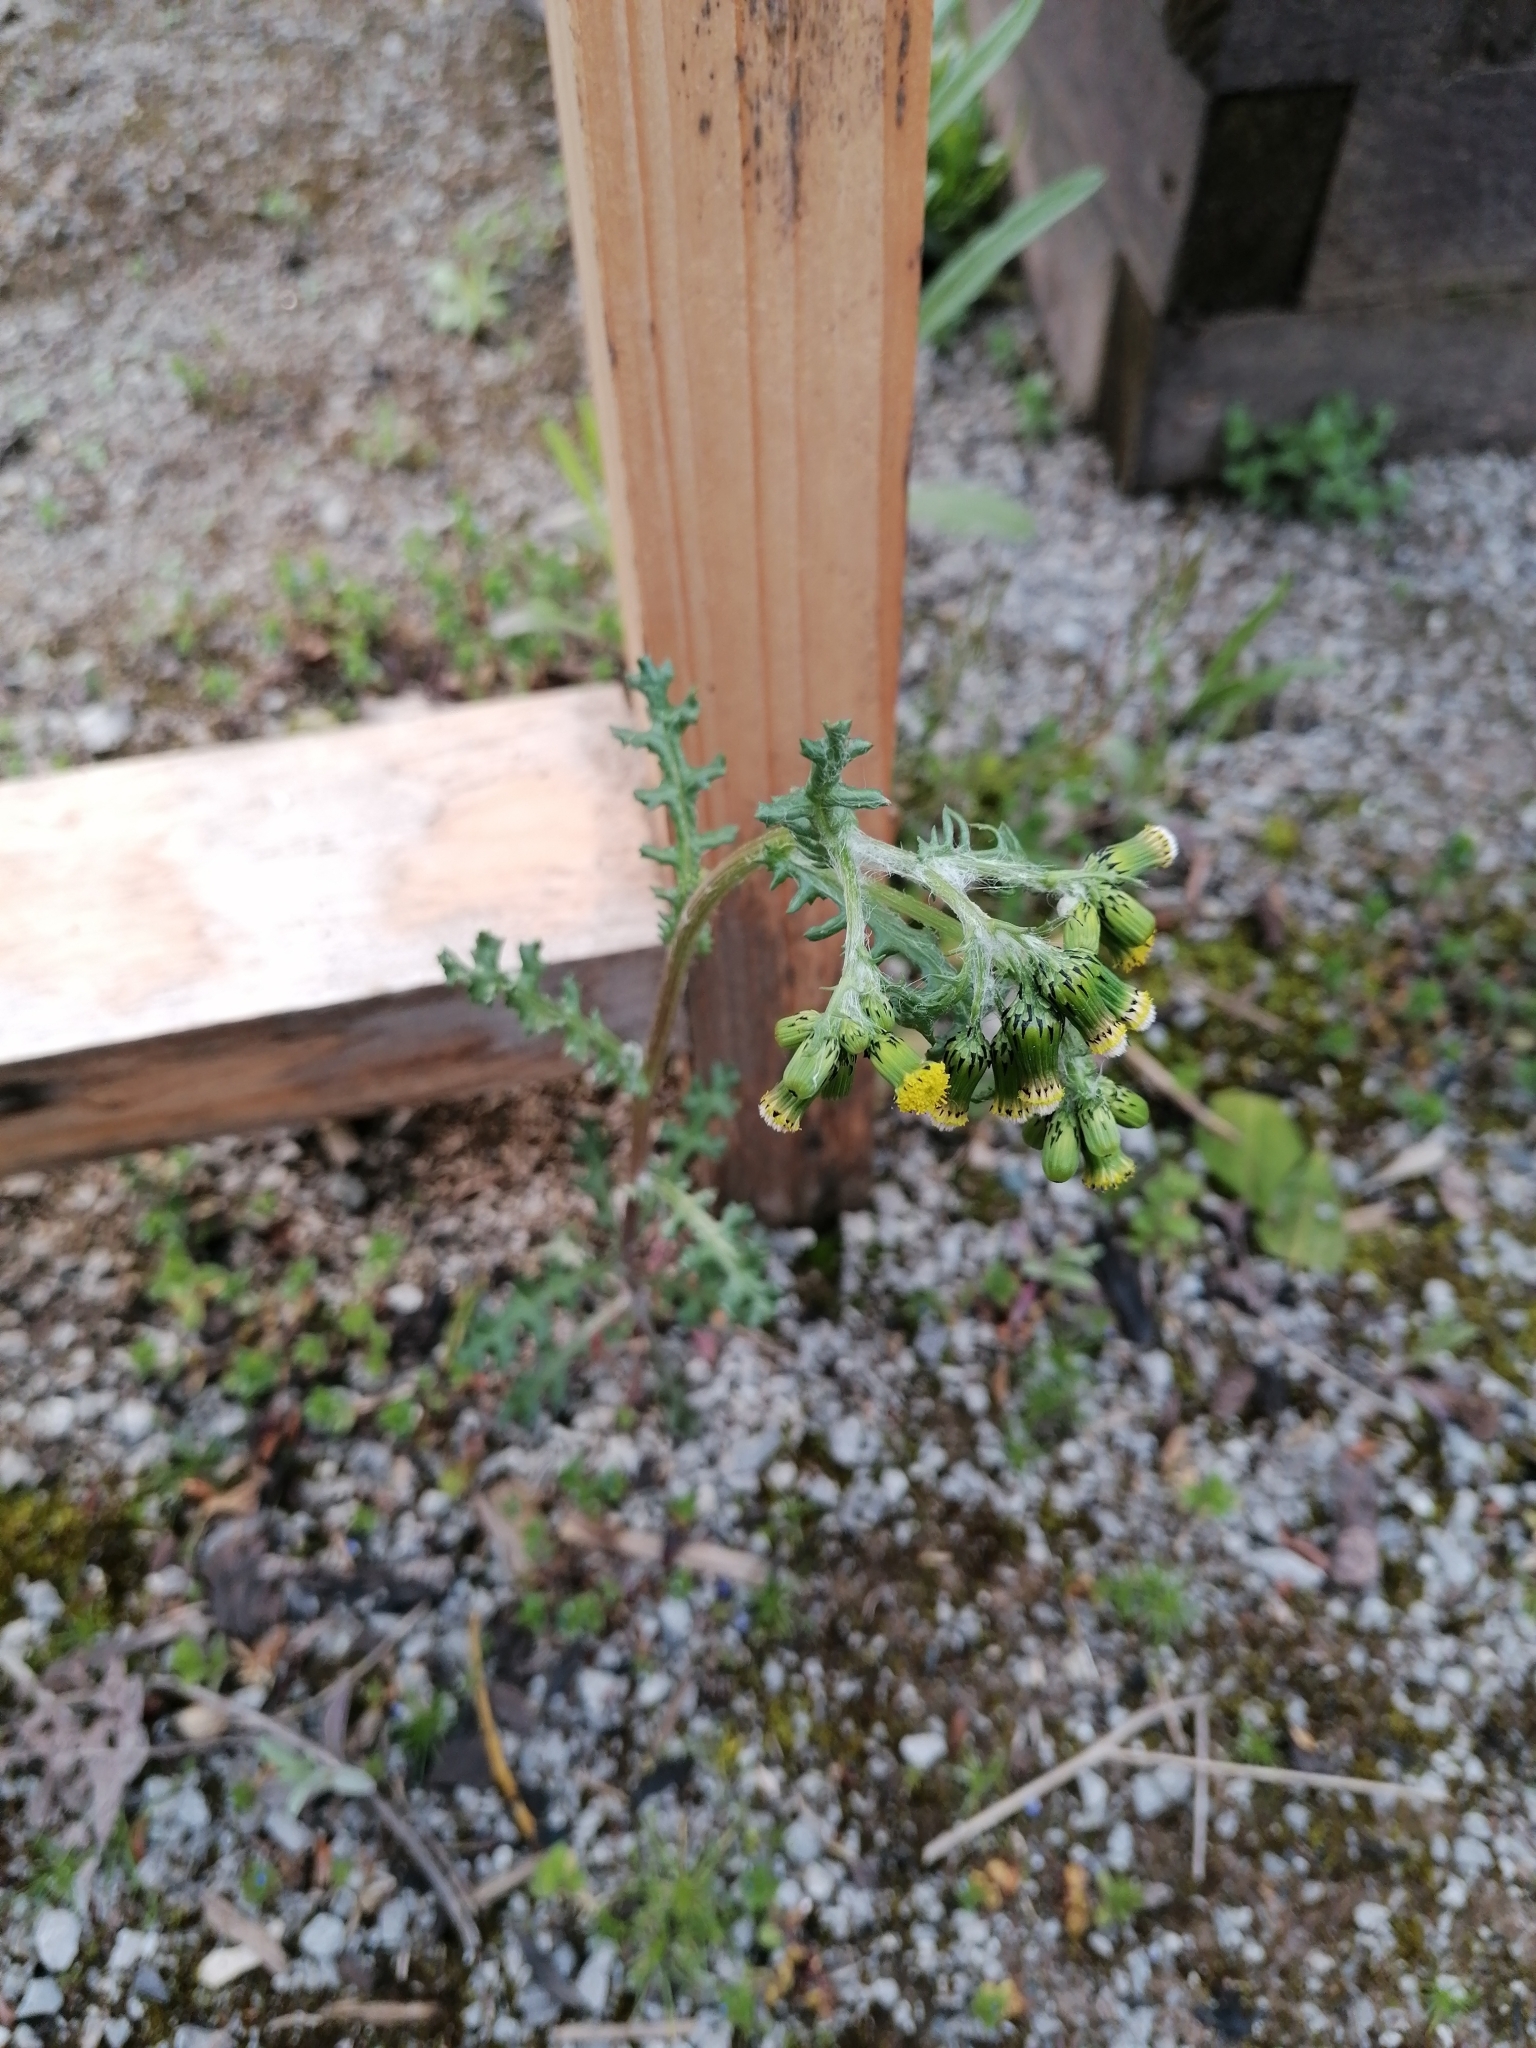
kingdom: Plantae
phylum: Tracheophyta
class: Magnoliopsida
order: Asterales
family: Asteraceae
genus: Senecio
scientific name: Senecio vulgaris
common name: Old-man-in-the-spring
